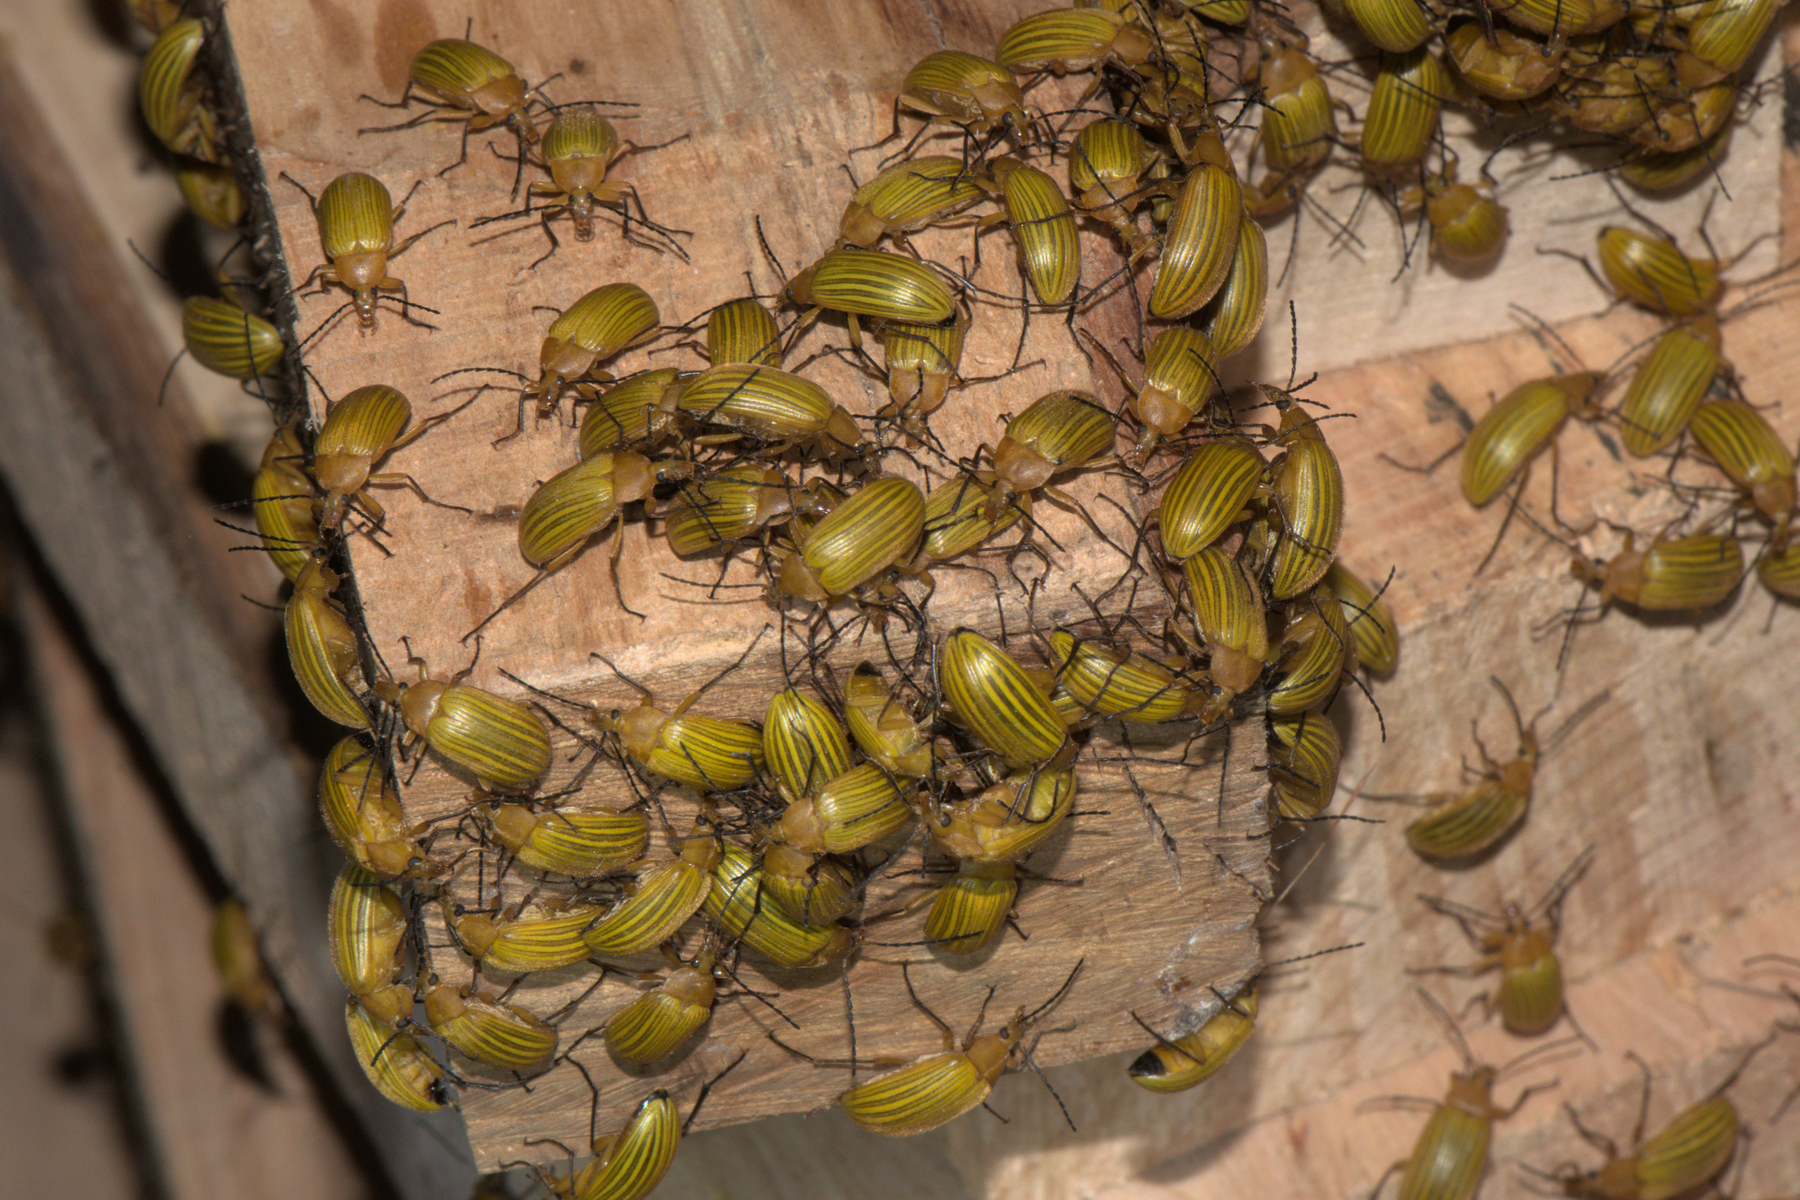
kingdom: Animalia
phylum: Arthropoda
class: Insecta
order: Coleoptera
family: Tenebrionidae
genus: Cistelomorpha
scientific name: Cistelomorpha
